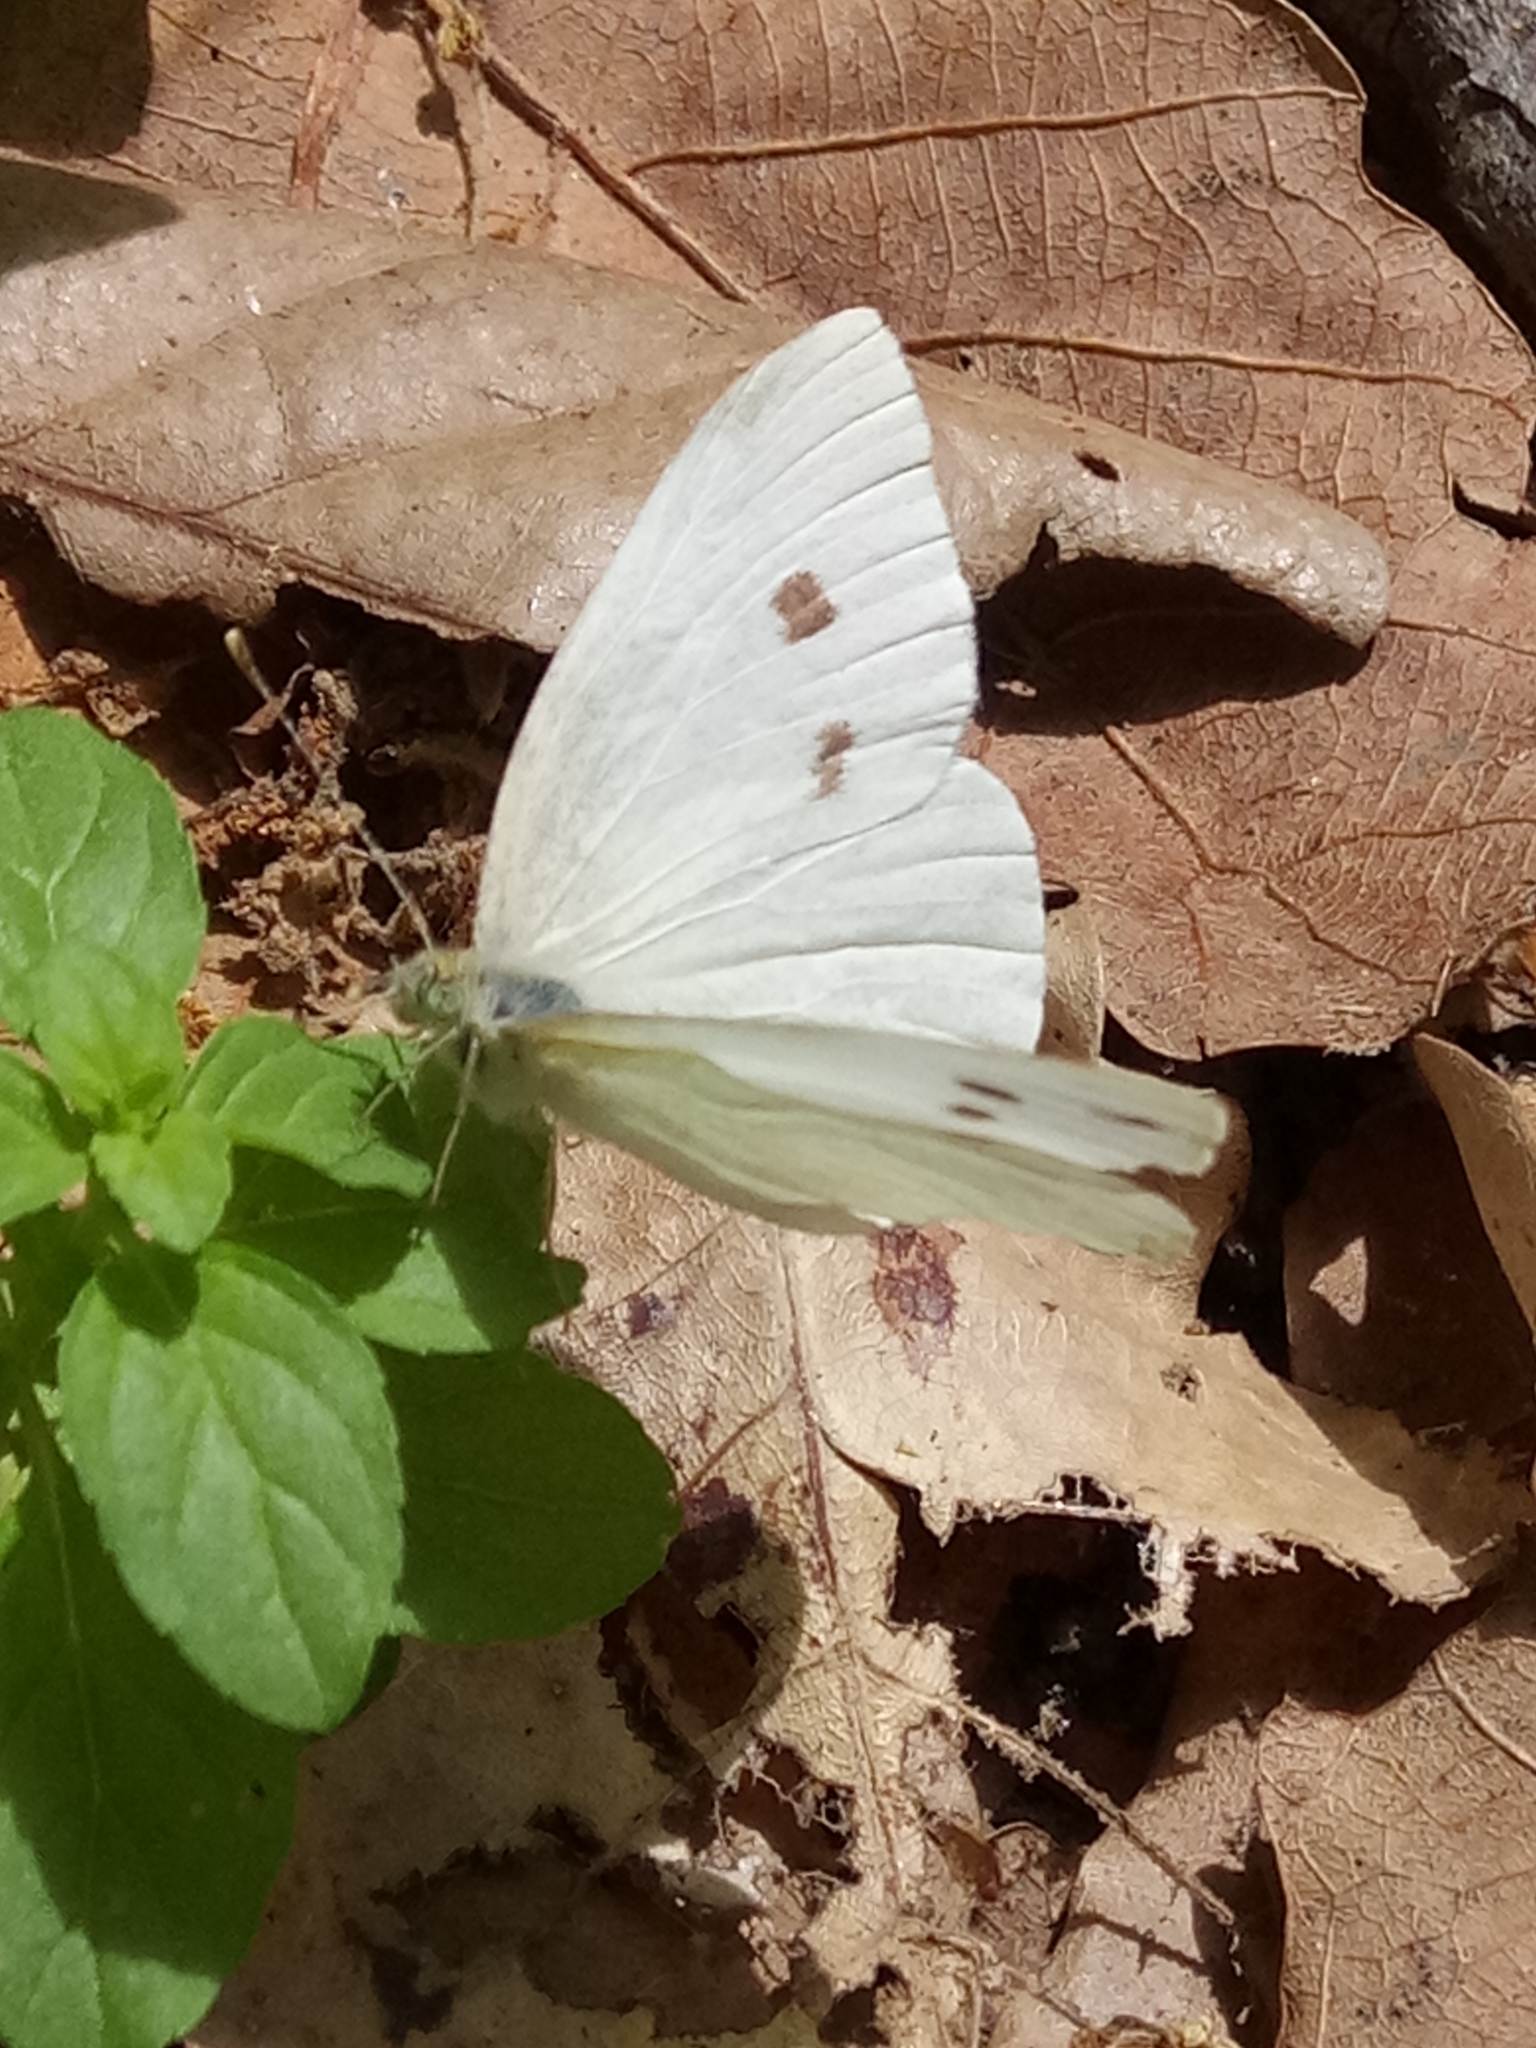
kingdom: Animalia
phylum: Arthropoda
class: Insecta
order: Lepidoptera
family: Pieridae
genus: Pieris
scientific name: Pieris rapae
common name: Small white
